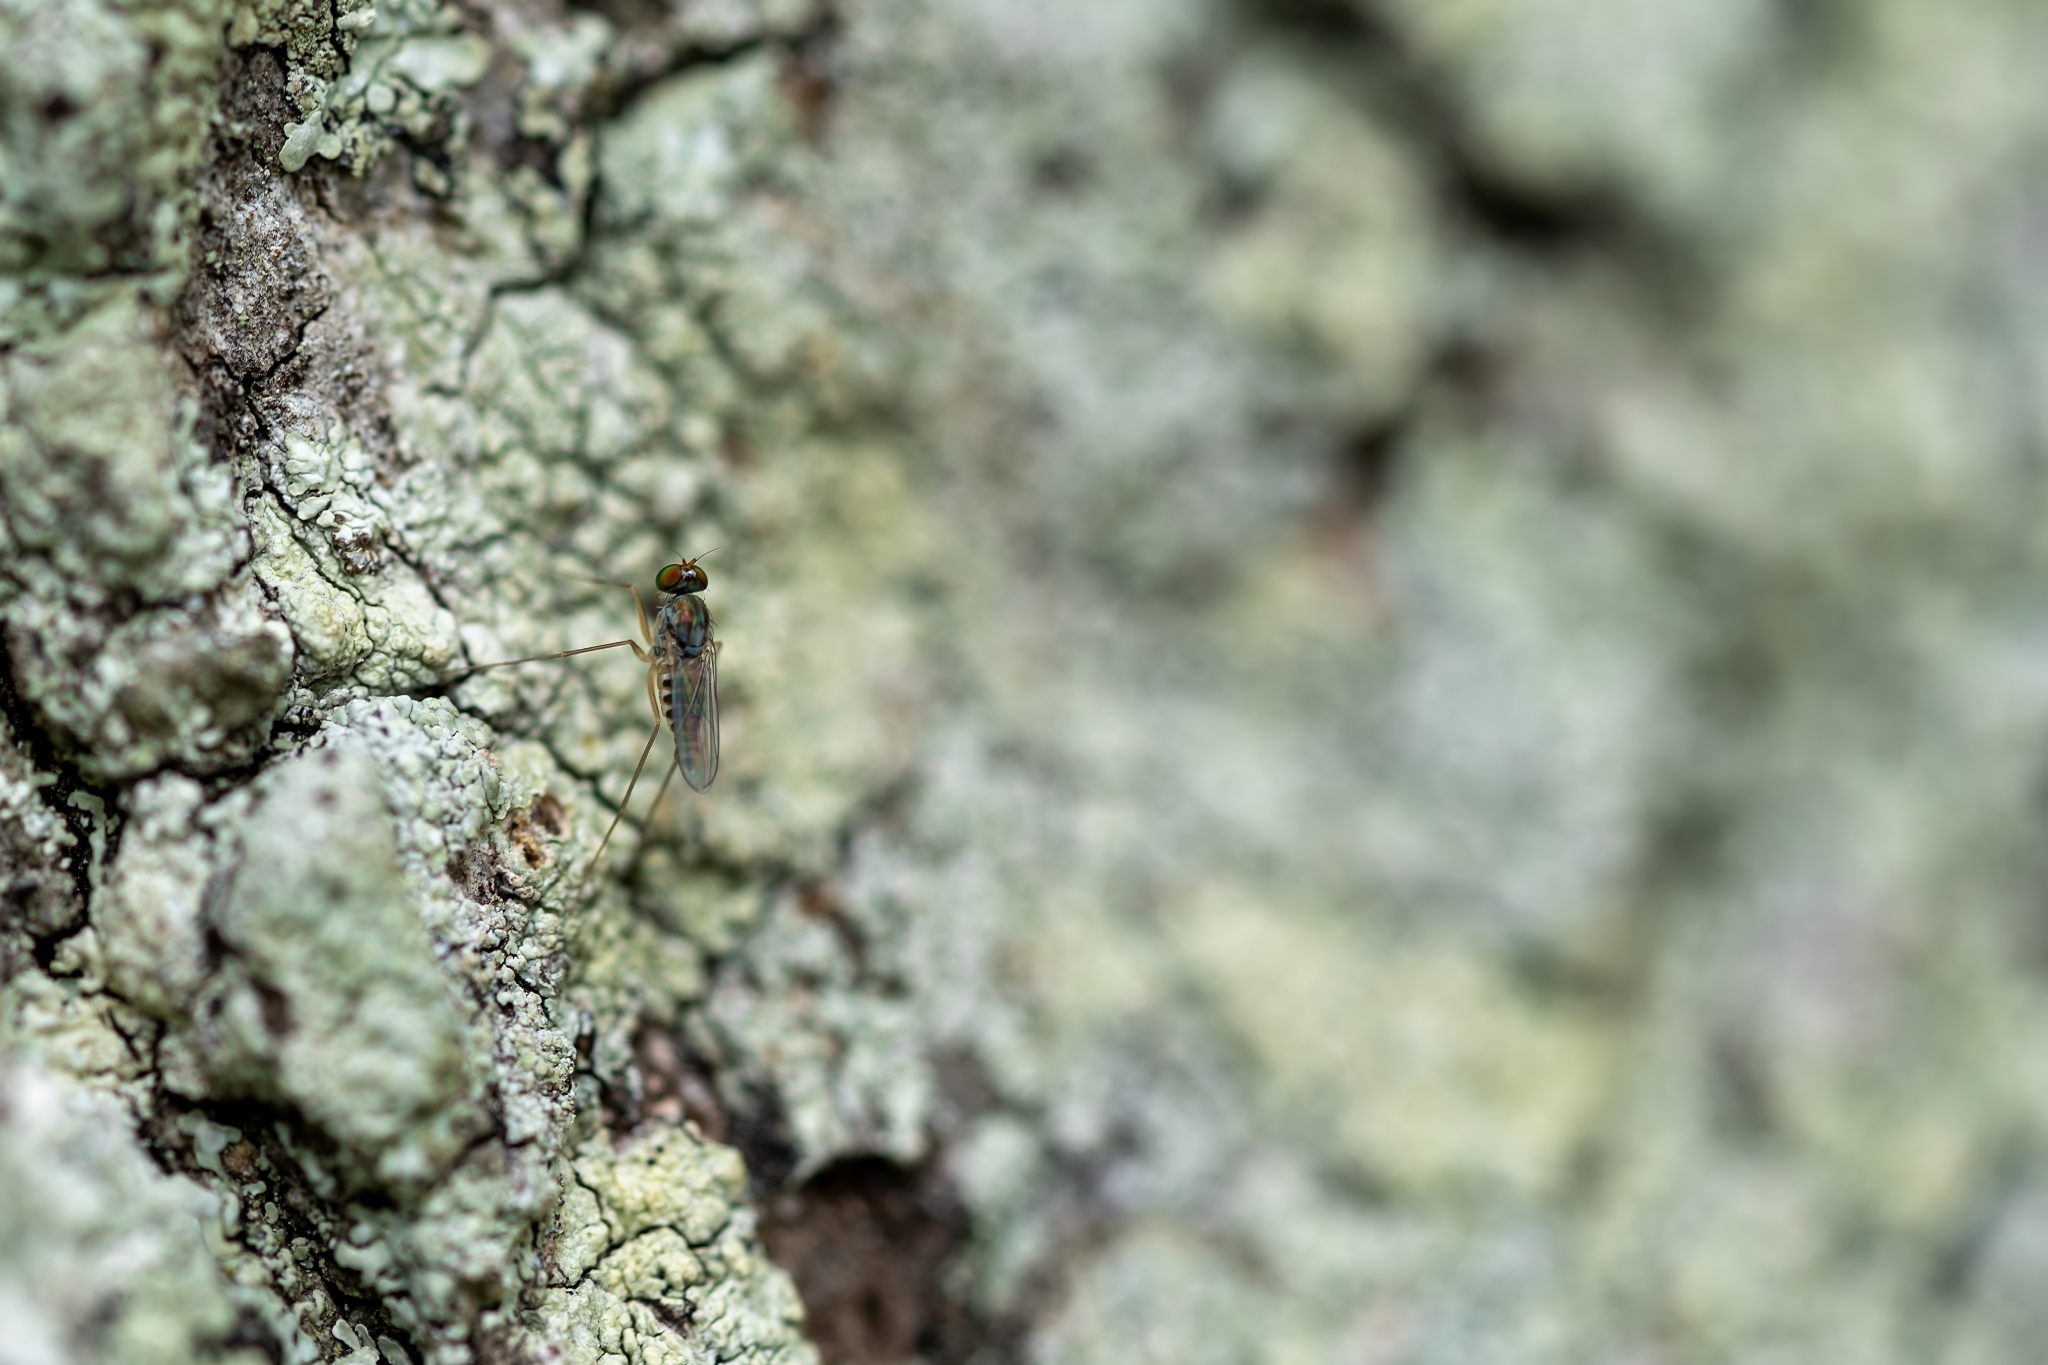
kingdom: Animalia
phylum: Arthropoda
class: Insecta
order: Diptera
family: Dolichopodidae
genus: Dactylomyia
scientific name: Dactylomyia lateralis
